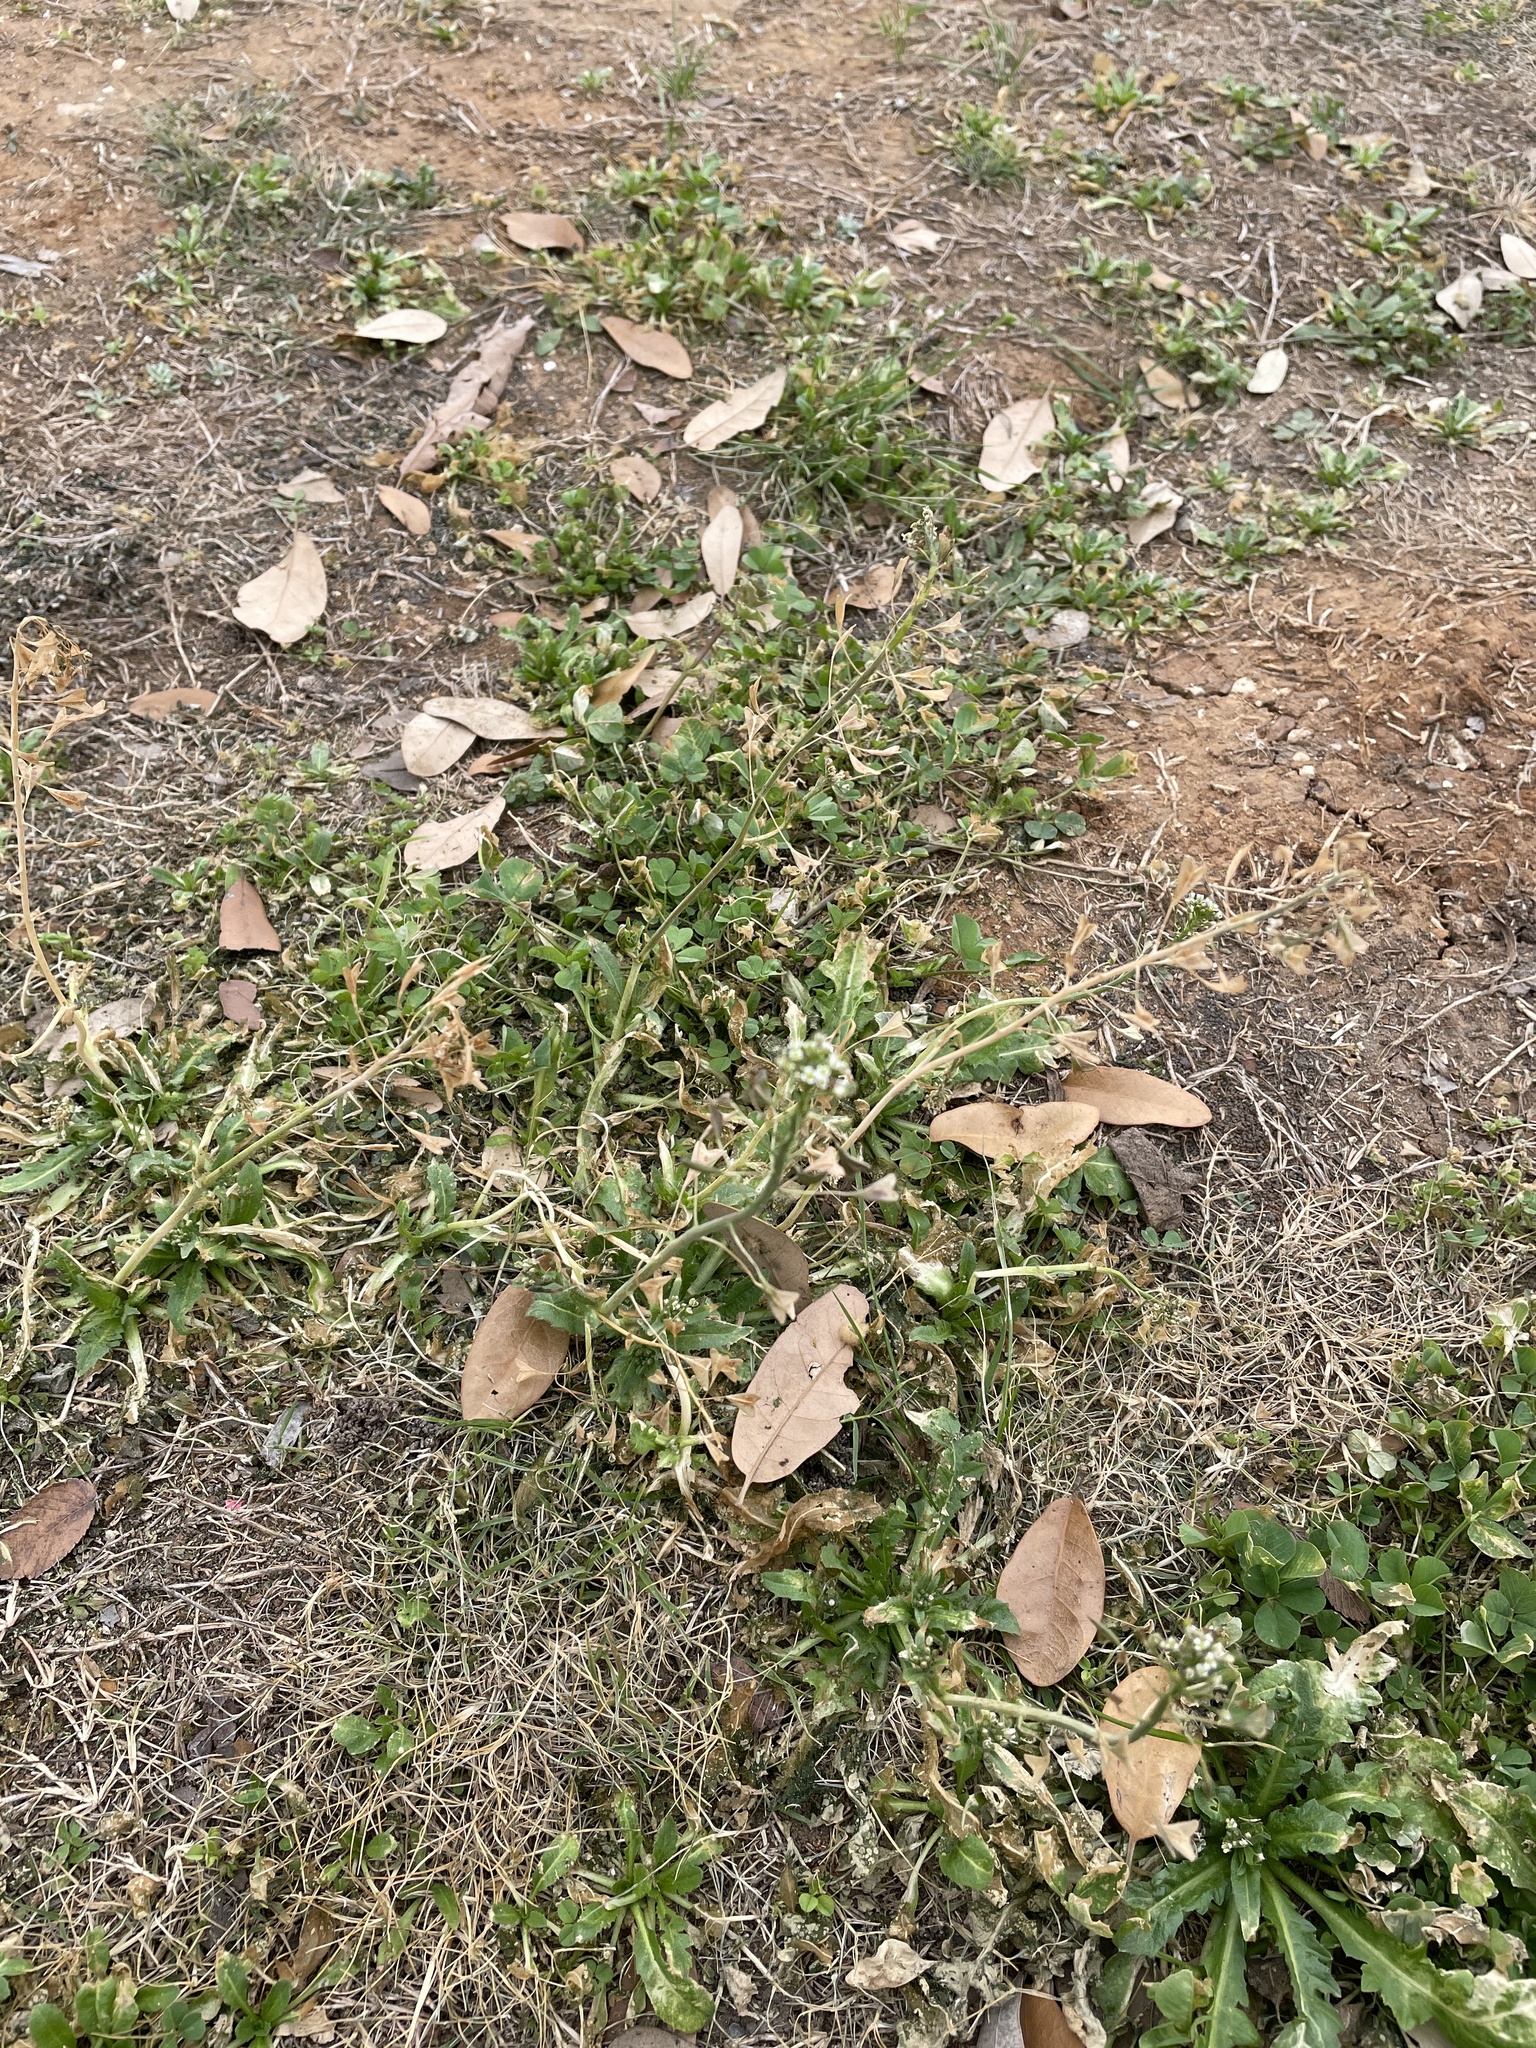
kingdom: Plantae
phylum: Tracheophyta
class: Magnoliopsida
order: Brassicales
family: Brassicaceae
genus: Capsella
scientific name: Capsella bursa-pastoris
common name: Shepherd's purse
